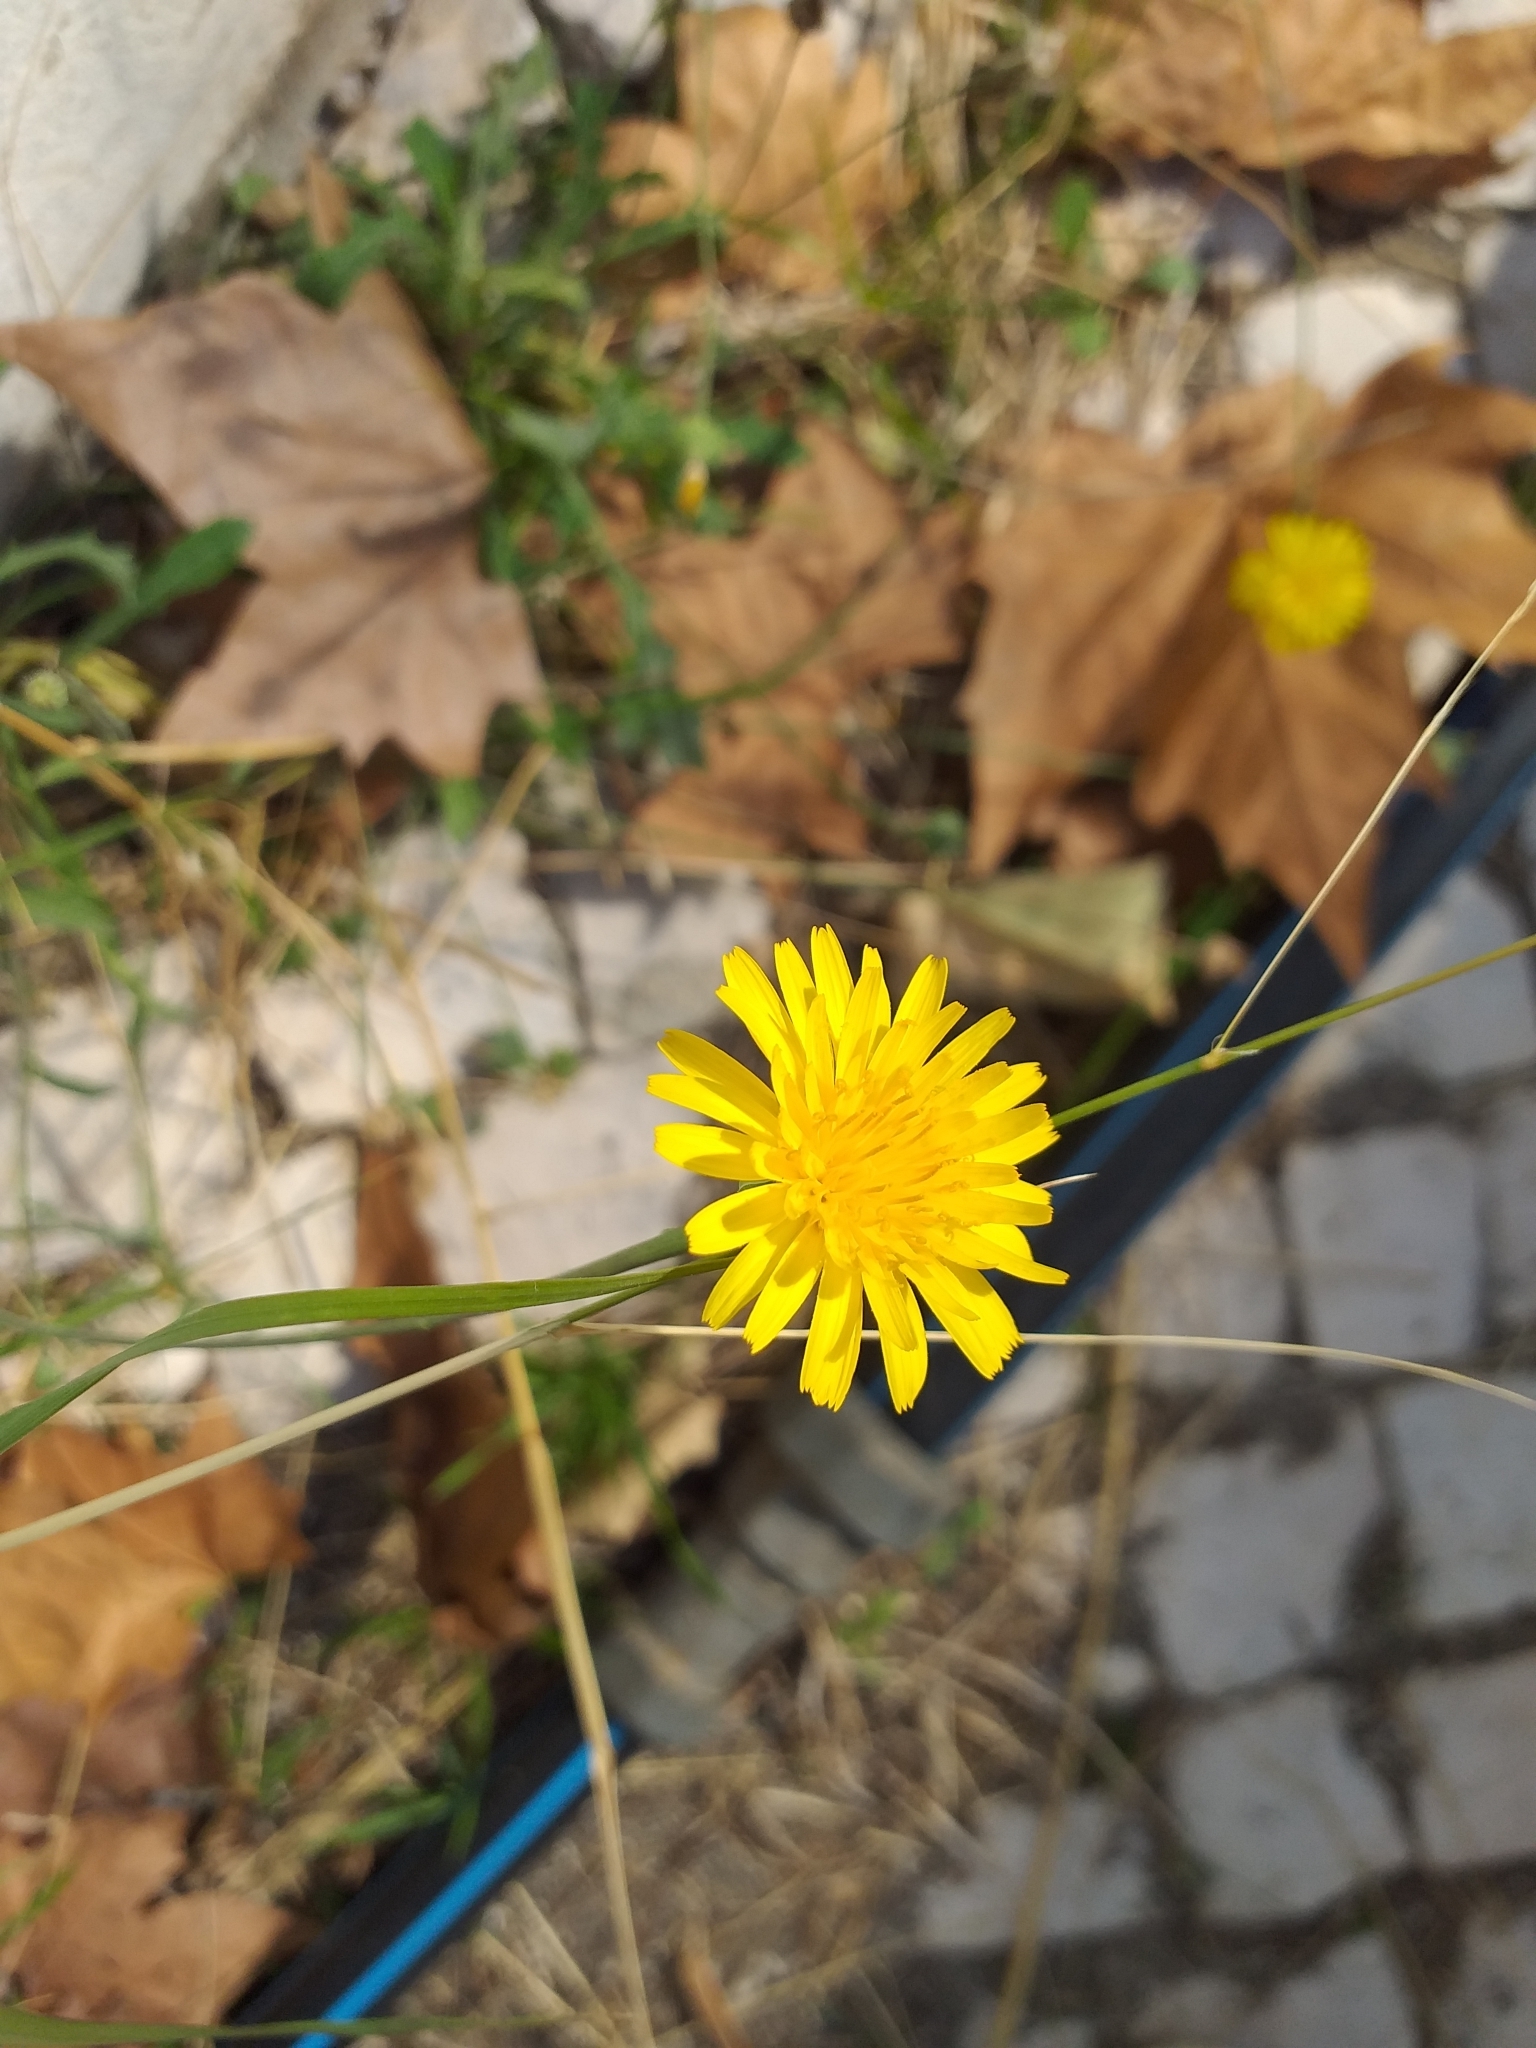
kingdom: Plantae
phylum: Tracheophyta
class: Magnoliopsida
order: Asterales
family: Asteraceae
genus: Hypochaeris
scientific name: Hypochaeris radicata
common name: Flatweed
